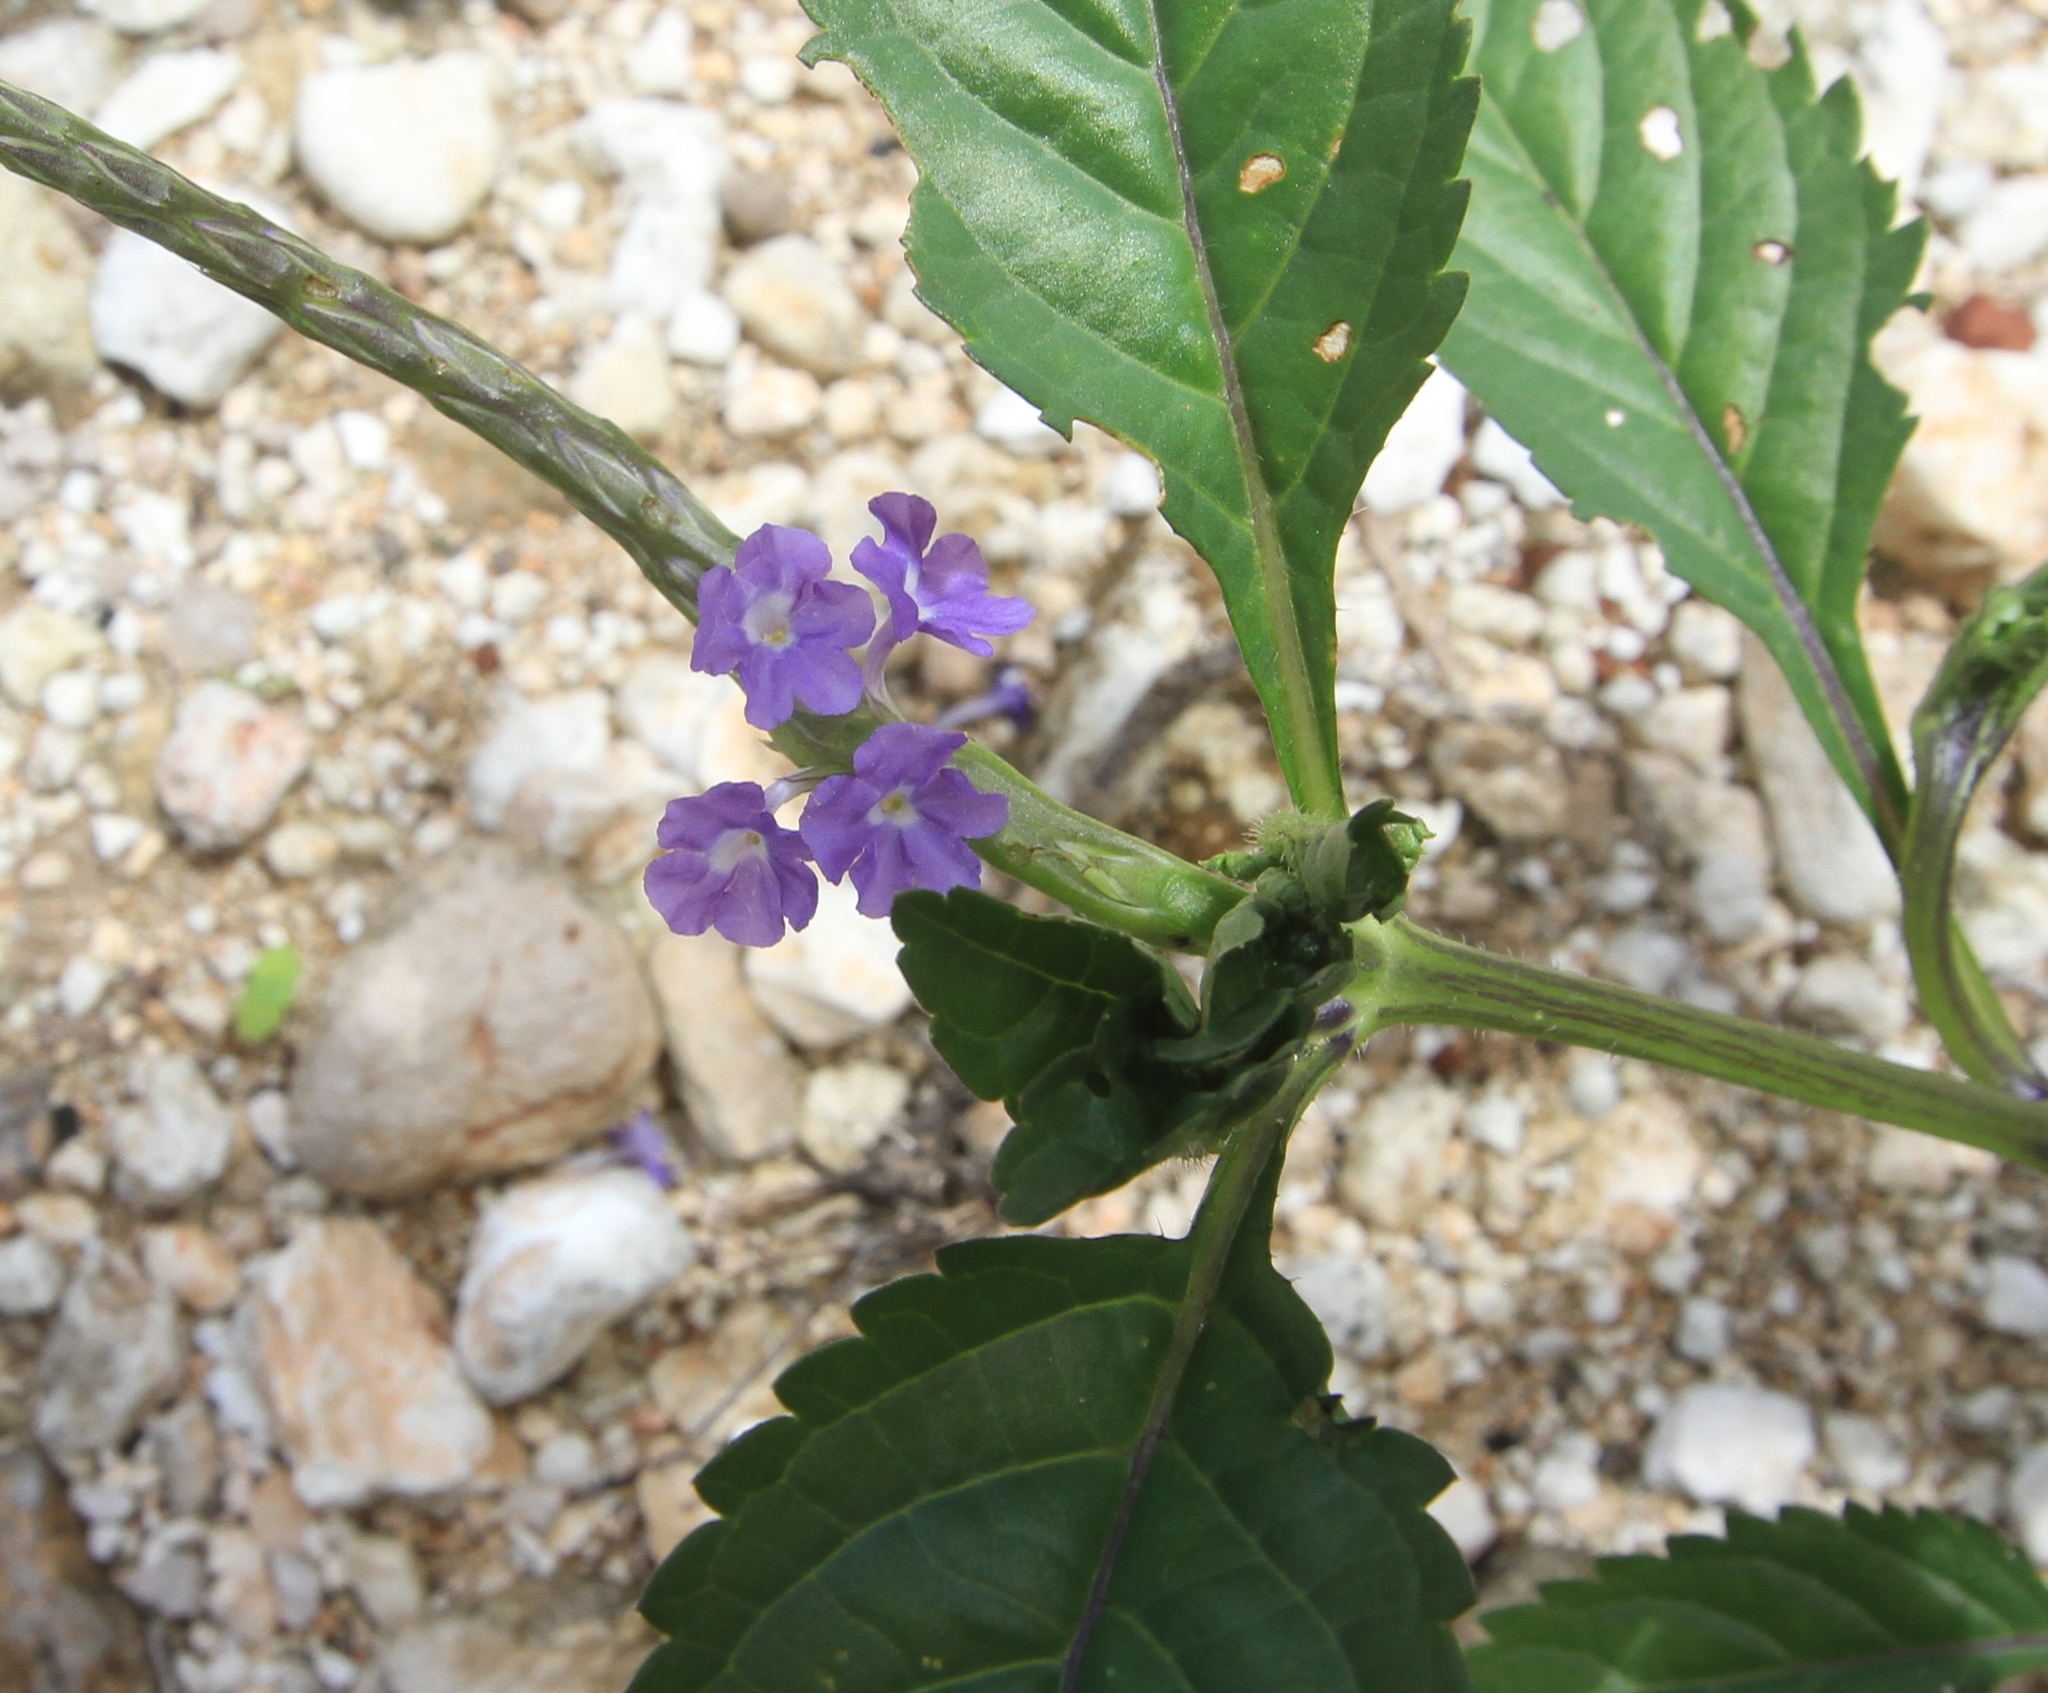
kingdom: Plantae
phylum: Tracheophyta
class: Magnoliopsida
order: Lamiales
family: Verbenaceae
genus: Stachytarpheta
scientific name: Stachytarpheta jamaicensis
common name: Light-blue snakeweed
